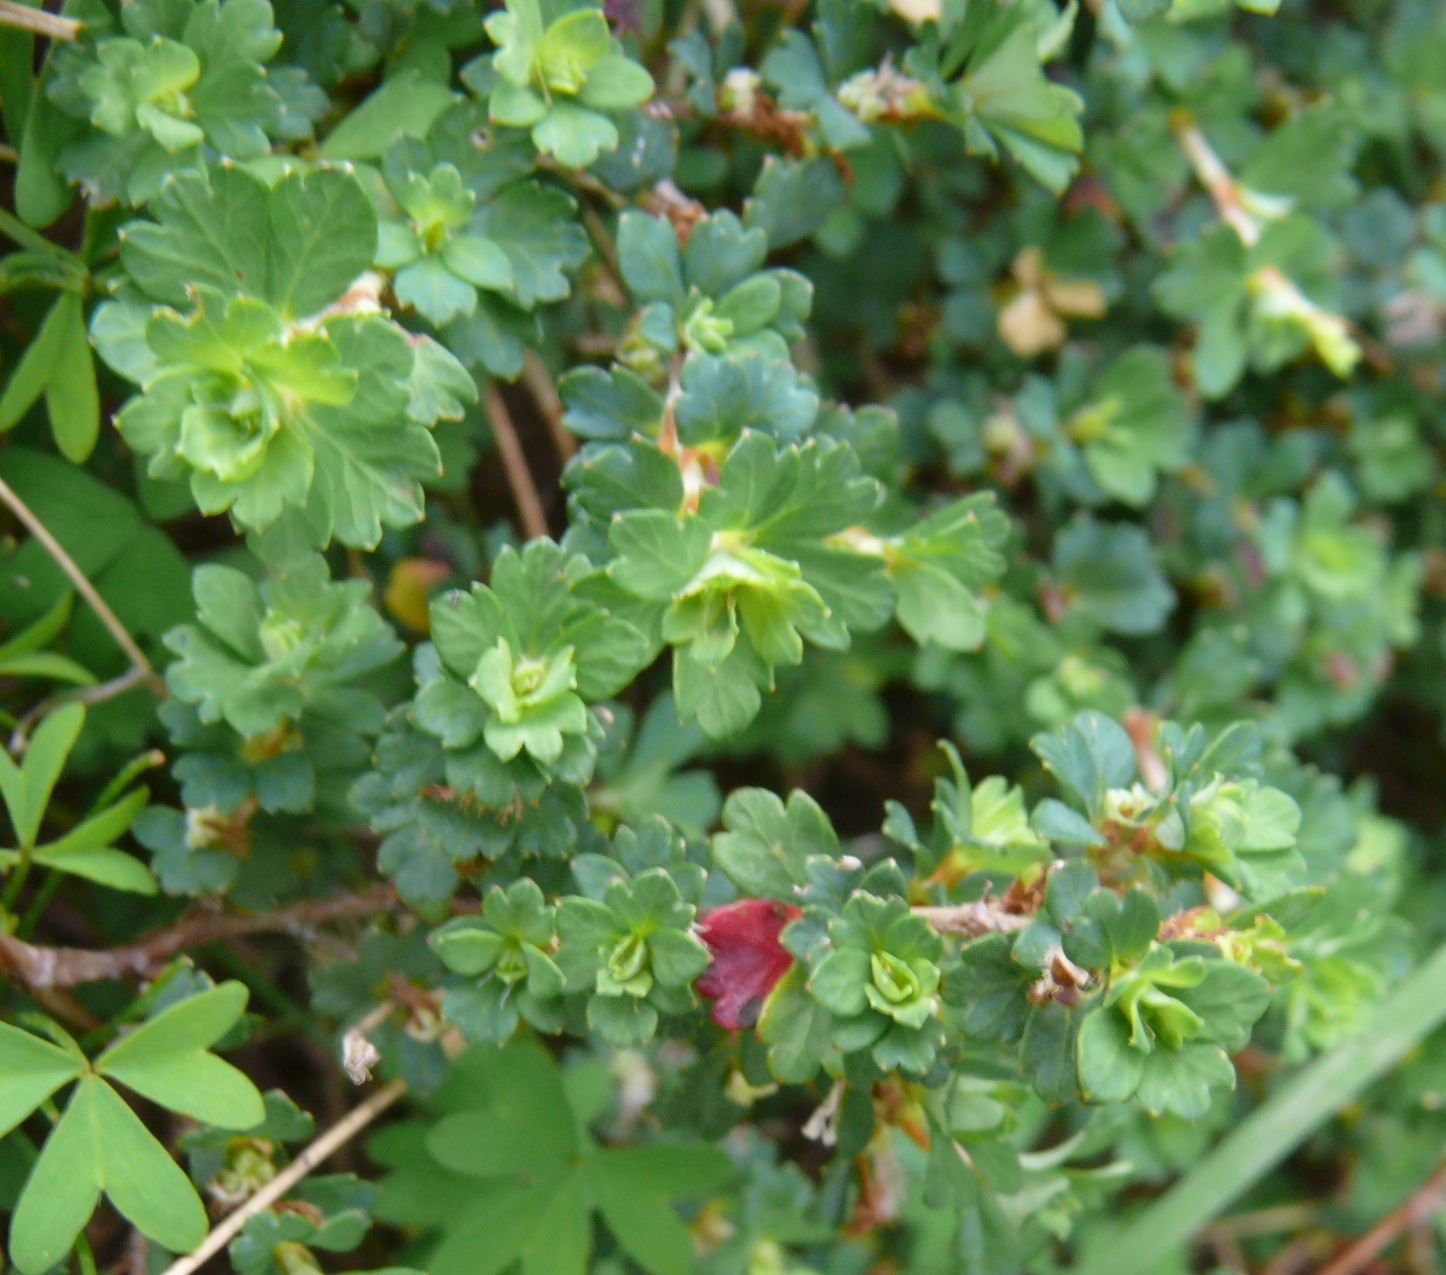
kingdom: Plantae
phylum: Tracheophyta
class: Magnoliopsida
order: Rosales
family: Rosaceae
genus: Cliffortia
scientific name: Cliffortia dentata
